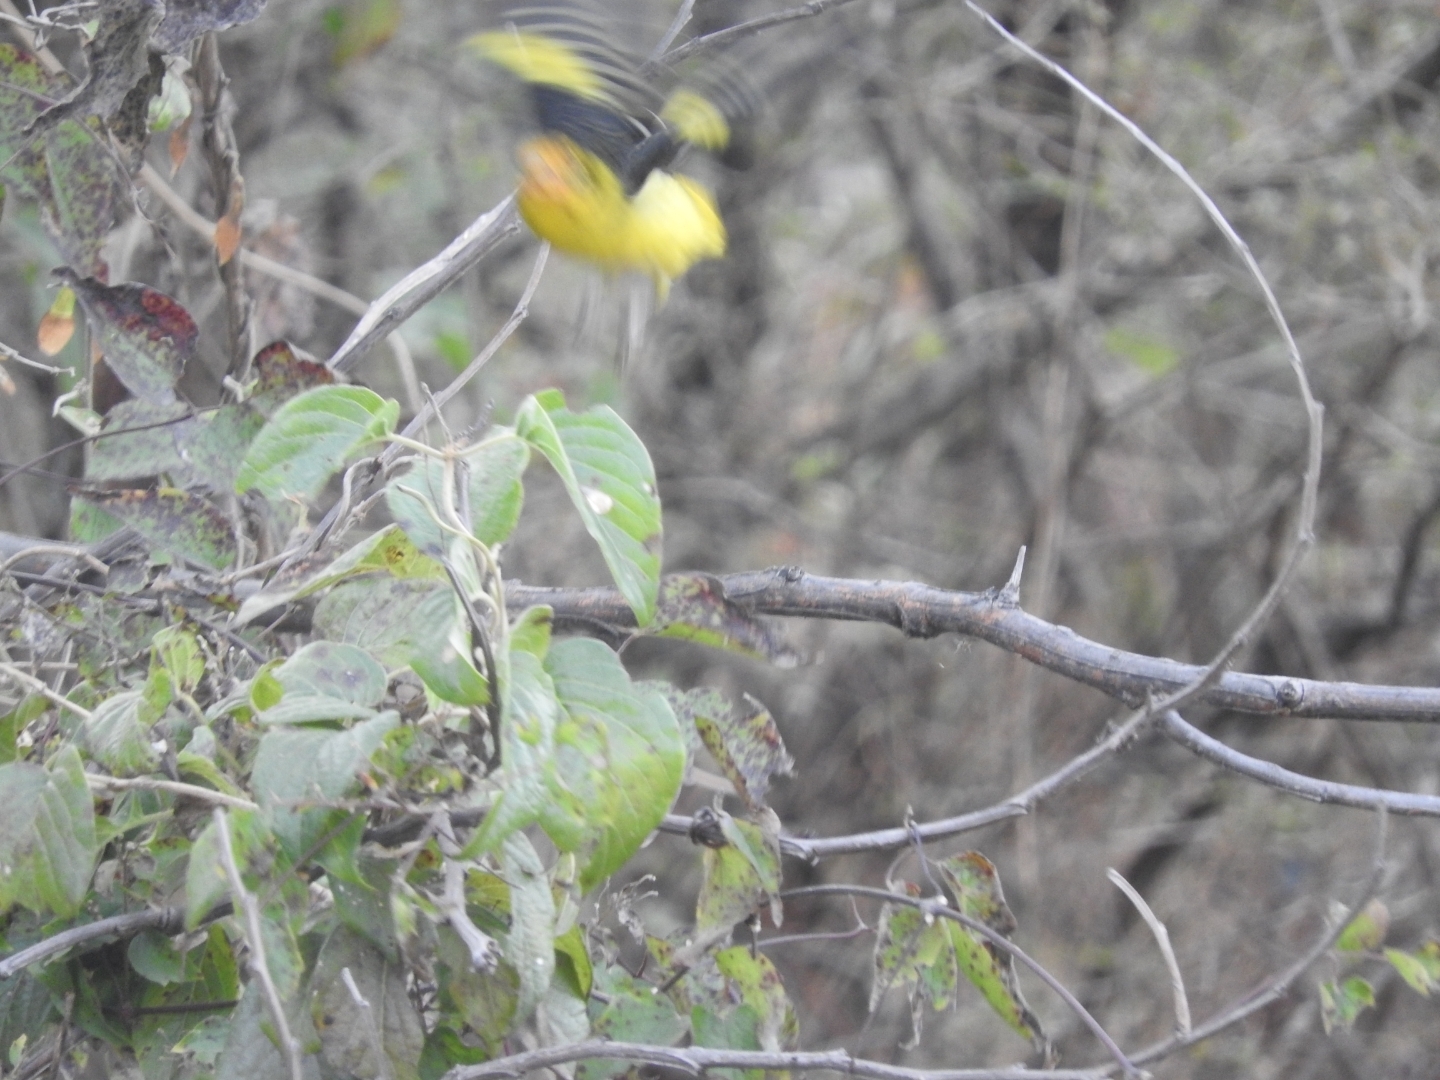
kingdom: Animalia
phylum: Chordata
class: Aves
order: Passeriformes
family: Cardinalidae
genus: Piranga
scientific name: Piranga ludoviciana
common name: Western tanager
